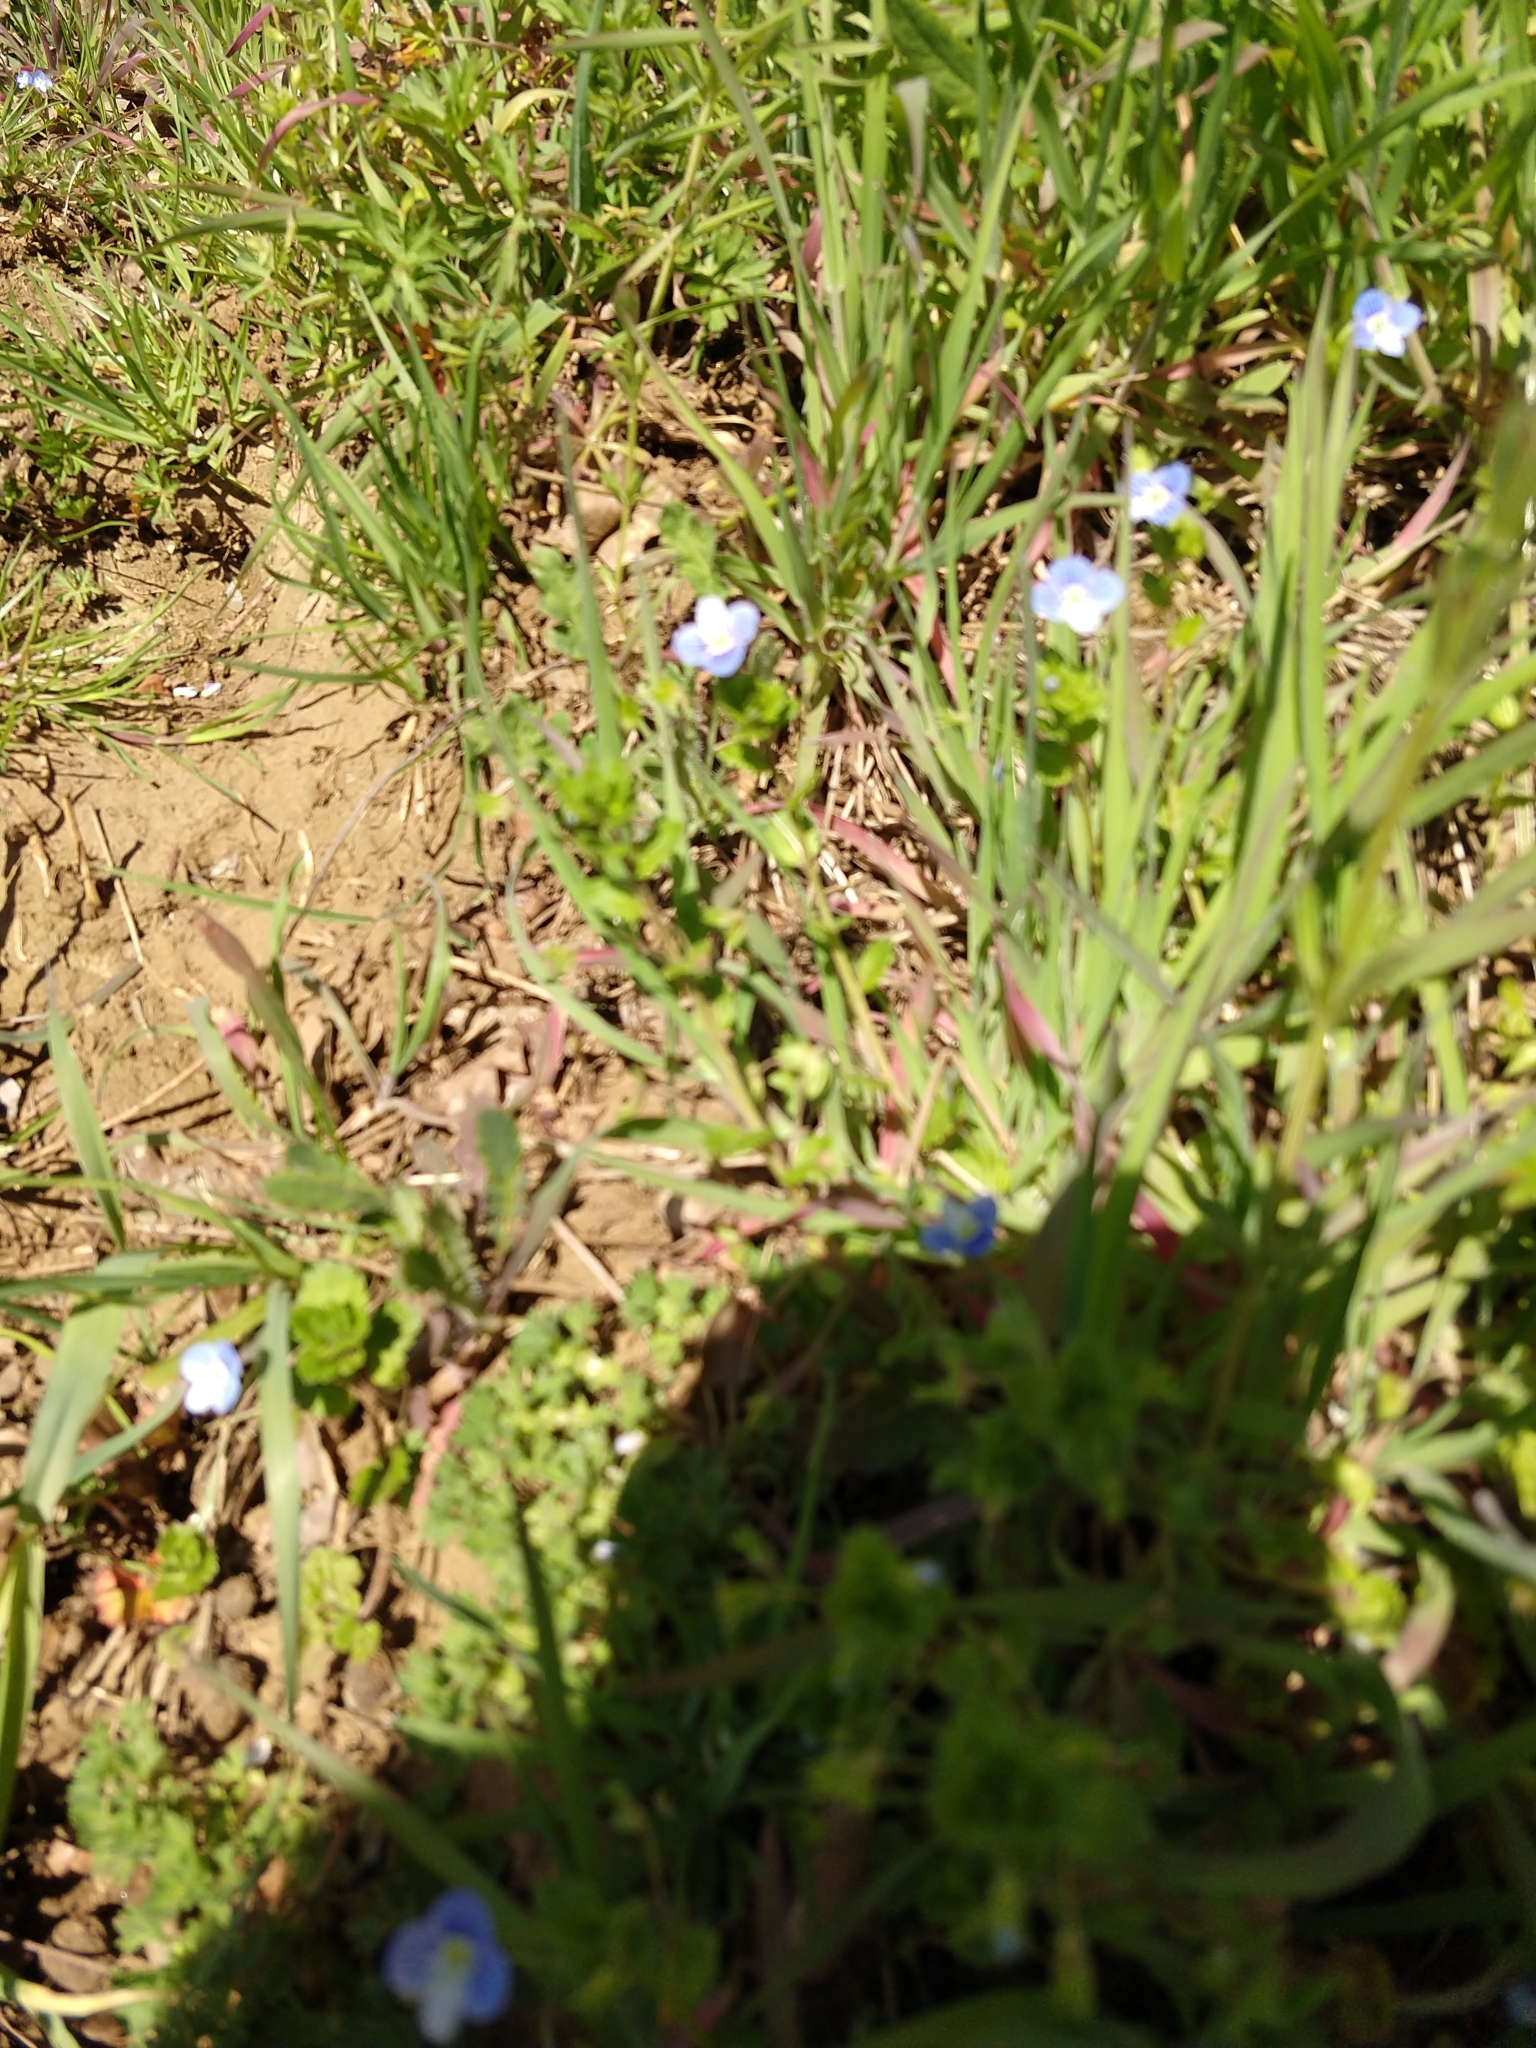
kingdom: Plantae
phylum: Tracheophyta
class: Magnoliopsida
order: Lamiales
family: Plantaginaceae
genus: Veronica
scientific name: Veronica persica
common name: Common field-speedwell
